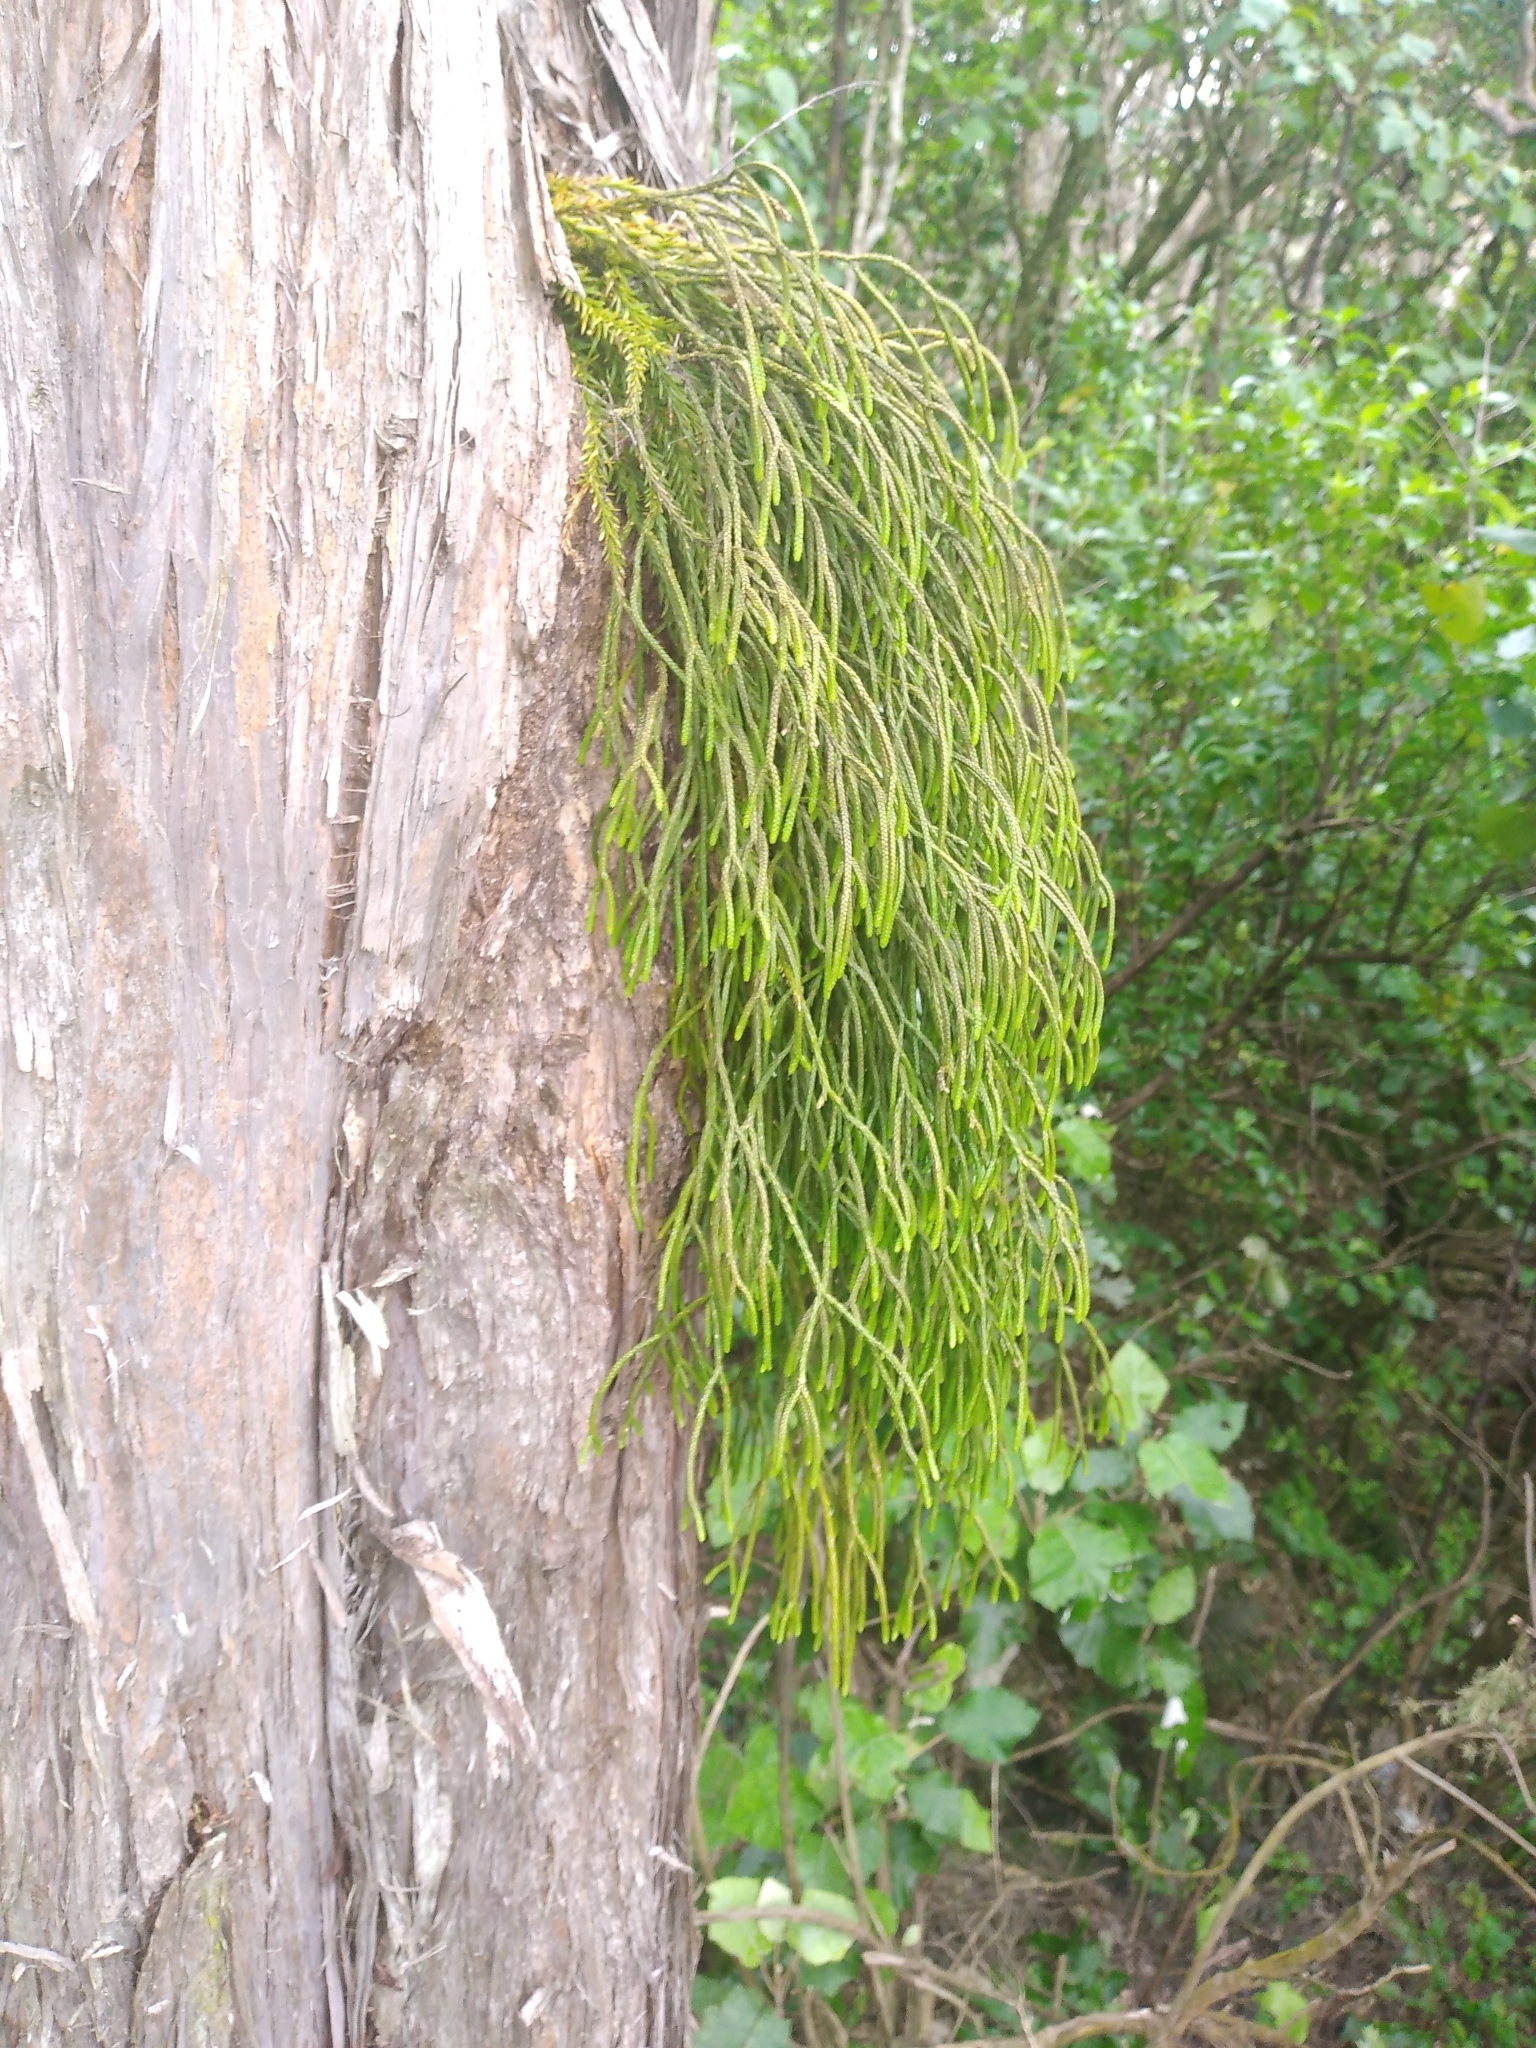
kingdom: Plantae
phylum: Tracheophyta
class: Lycopodiopsida
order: Lycopodiales
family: Lycopodiaceae
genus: Phlegmariurus
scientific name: Phlegmariurus billardierei
